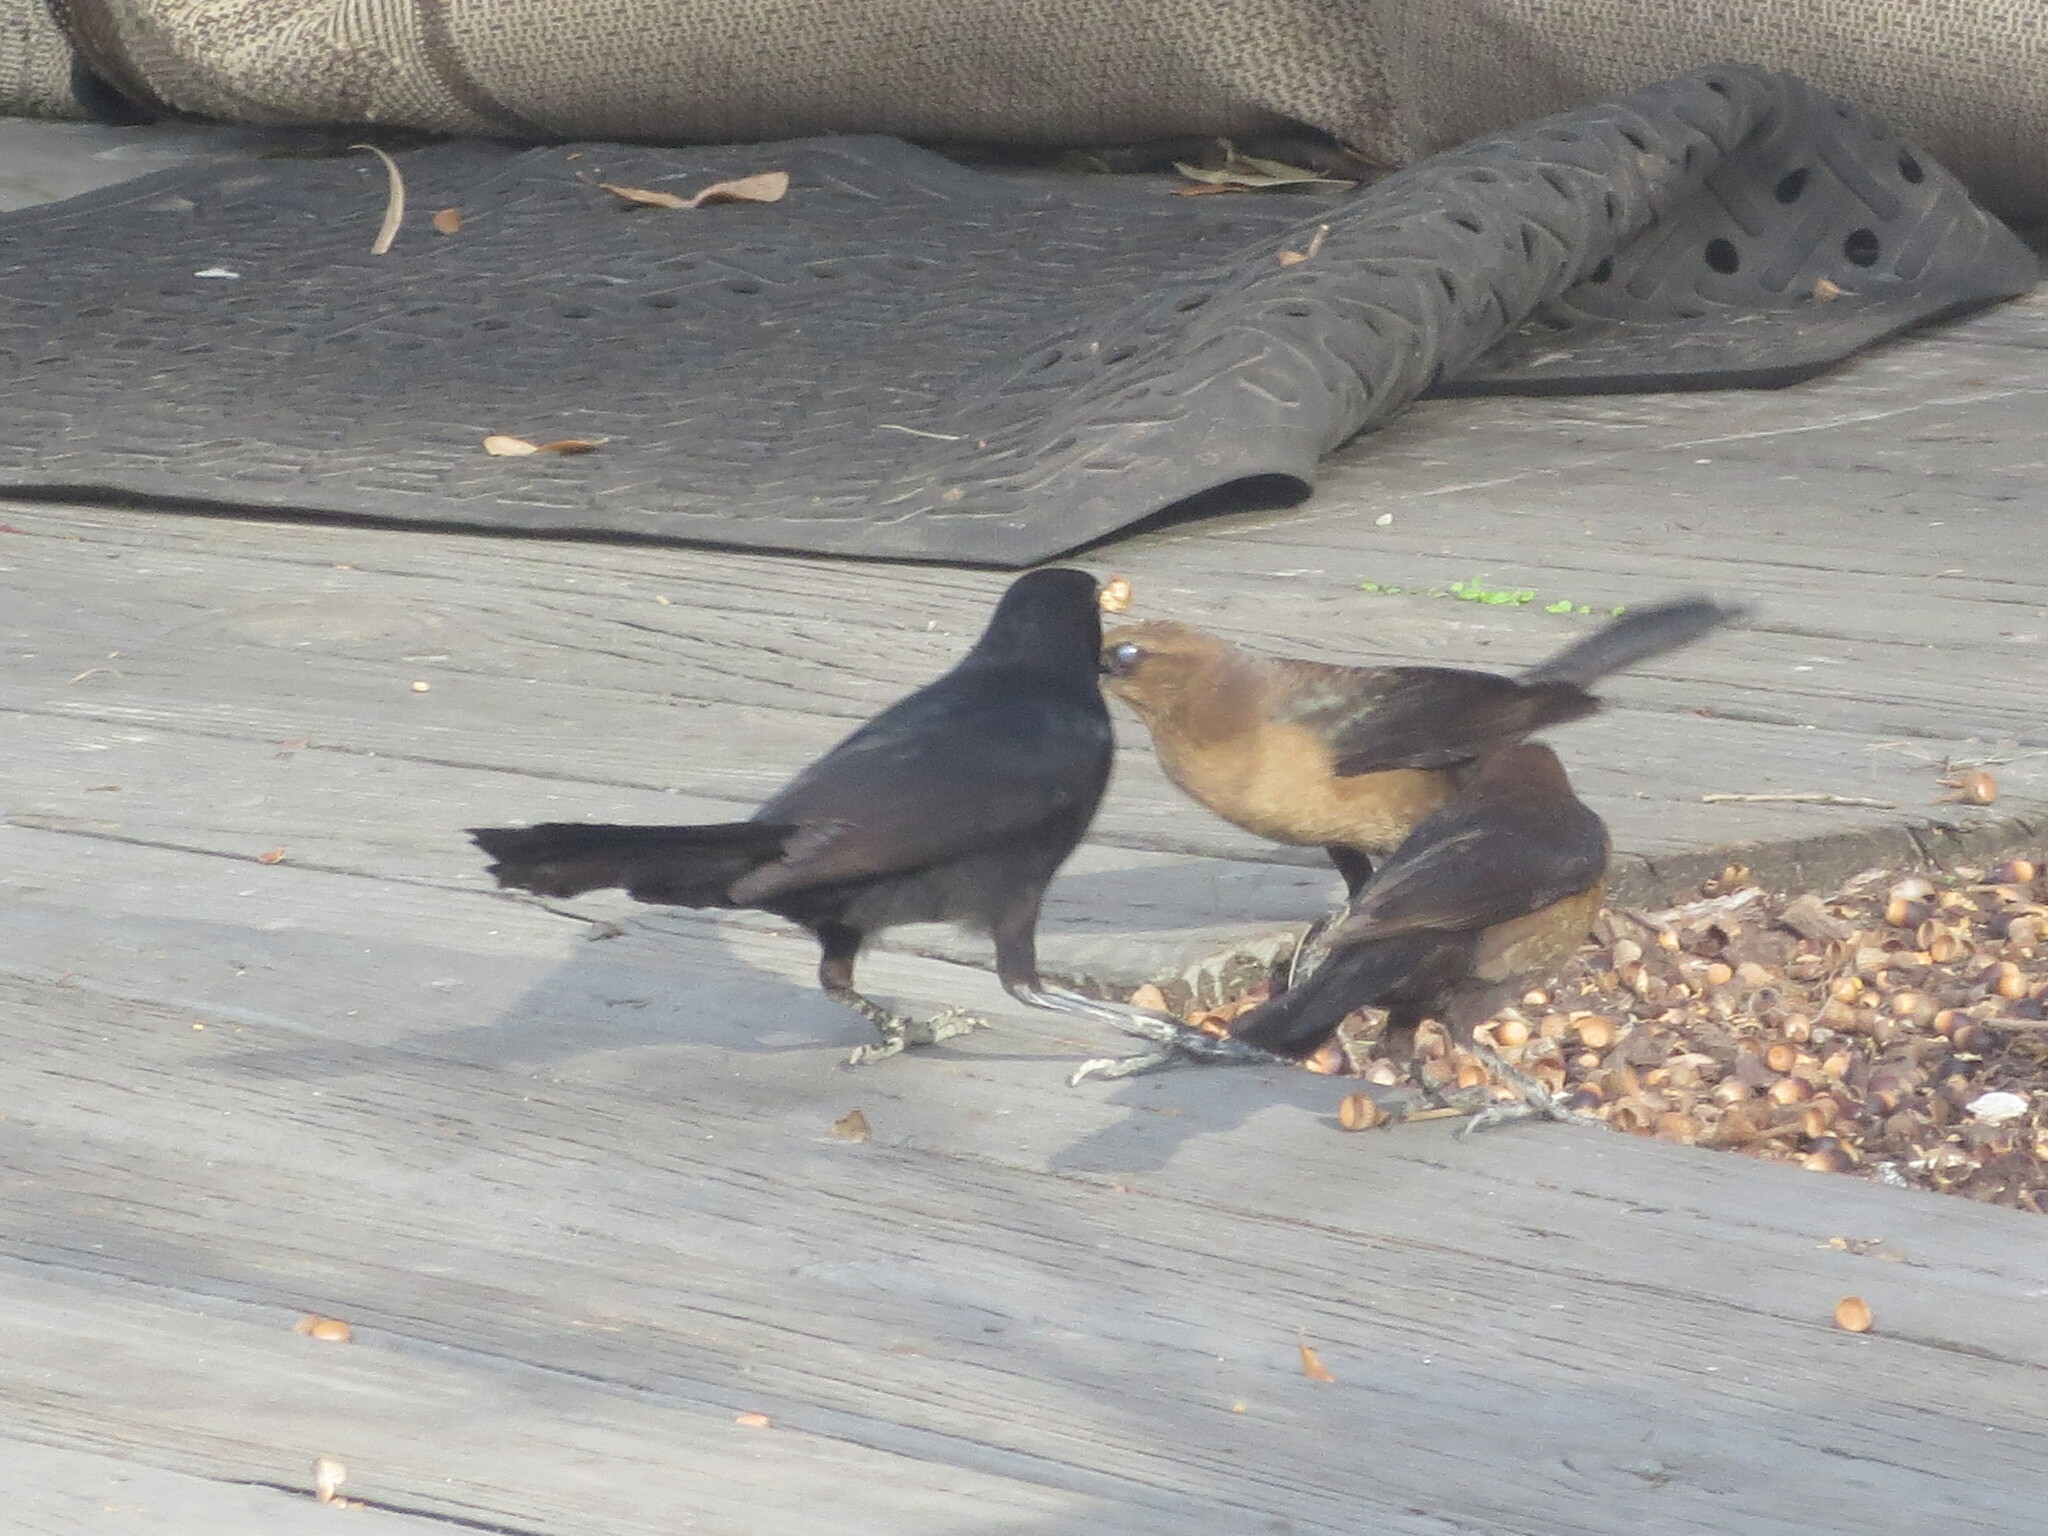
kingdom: Animalia
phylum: Chordata
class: Aves
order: Passeriformes
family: Icteridae
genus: Quiscalus
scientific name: Quiscalus major
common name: Boat-tailed grackle
